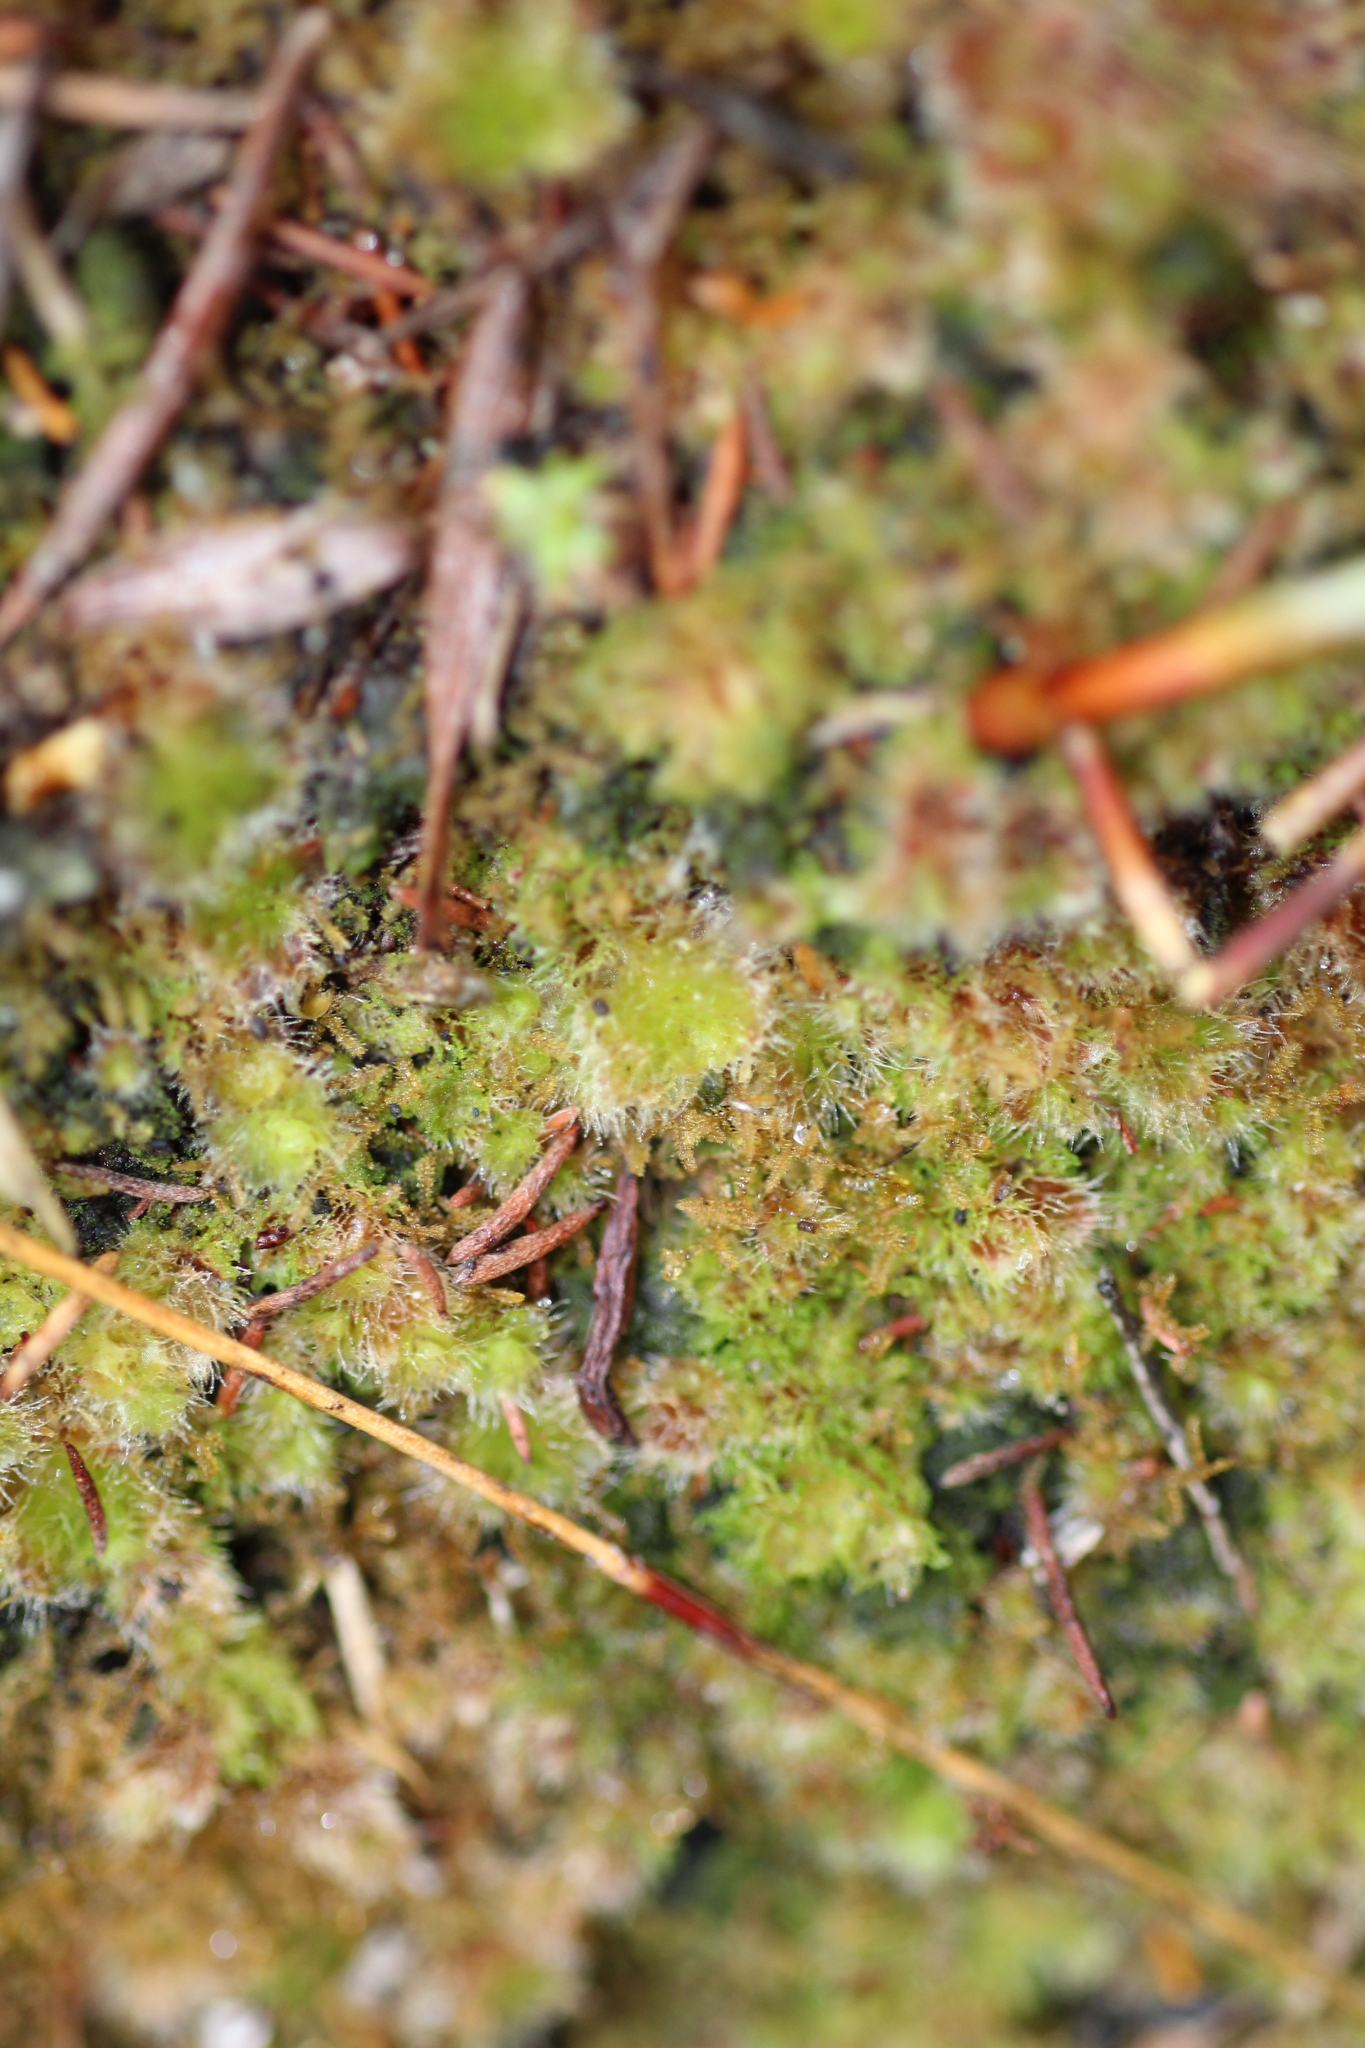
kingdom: Plantae
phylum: Marchantiophyta
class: Jungermanniopsida
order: Jungermanniales
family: Cephaloziellaceae
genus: Chaetophyllopsis
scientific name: Chaetophyllopsis whiteleggei
